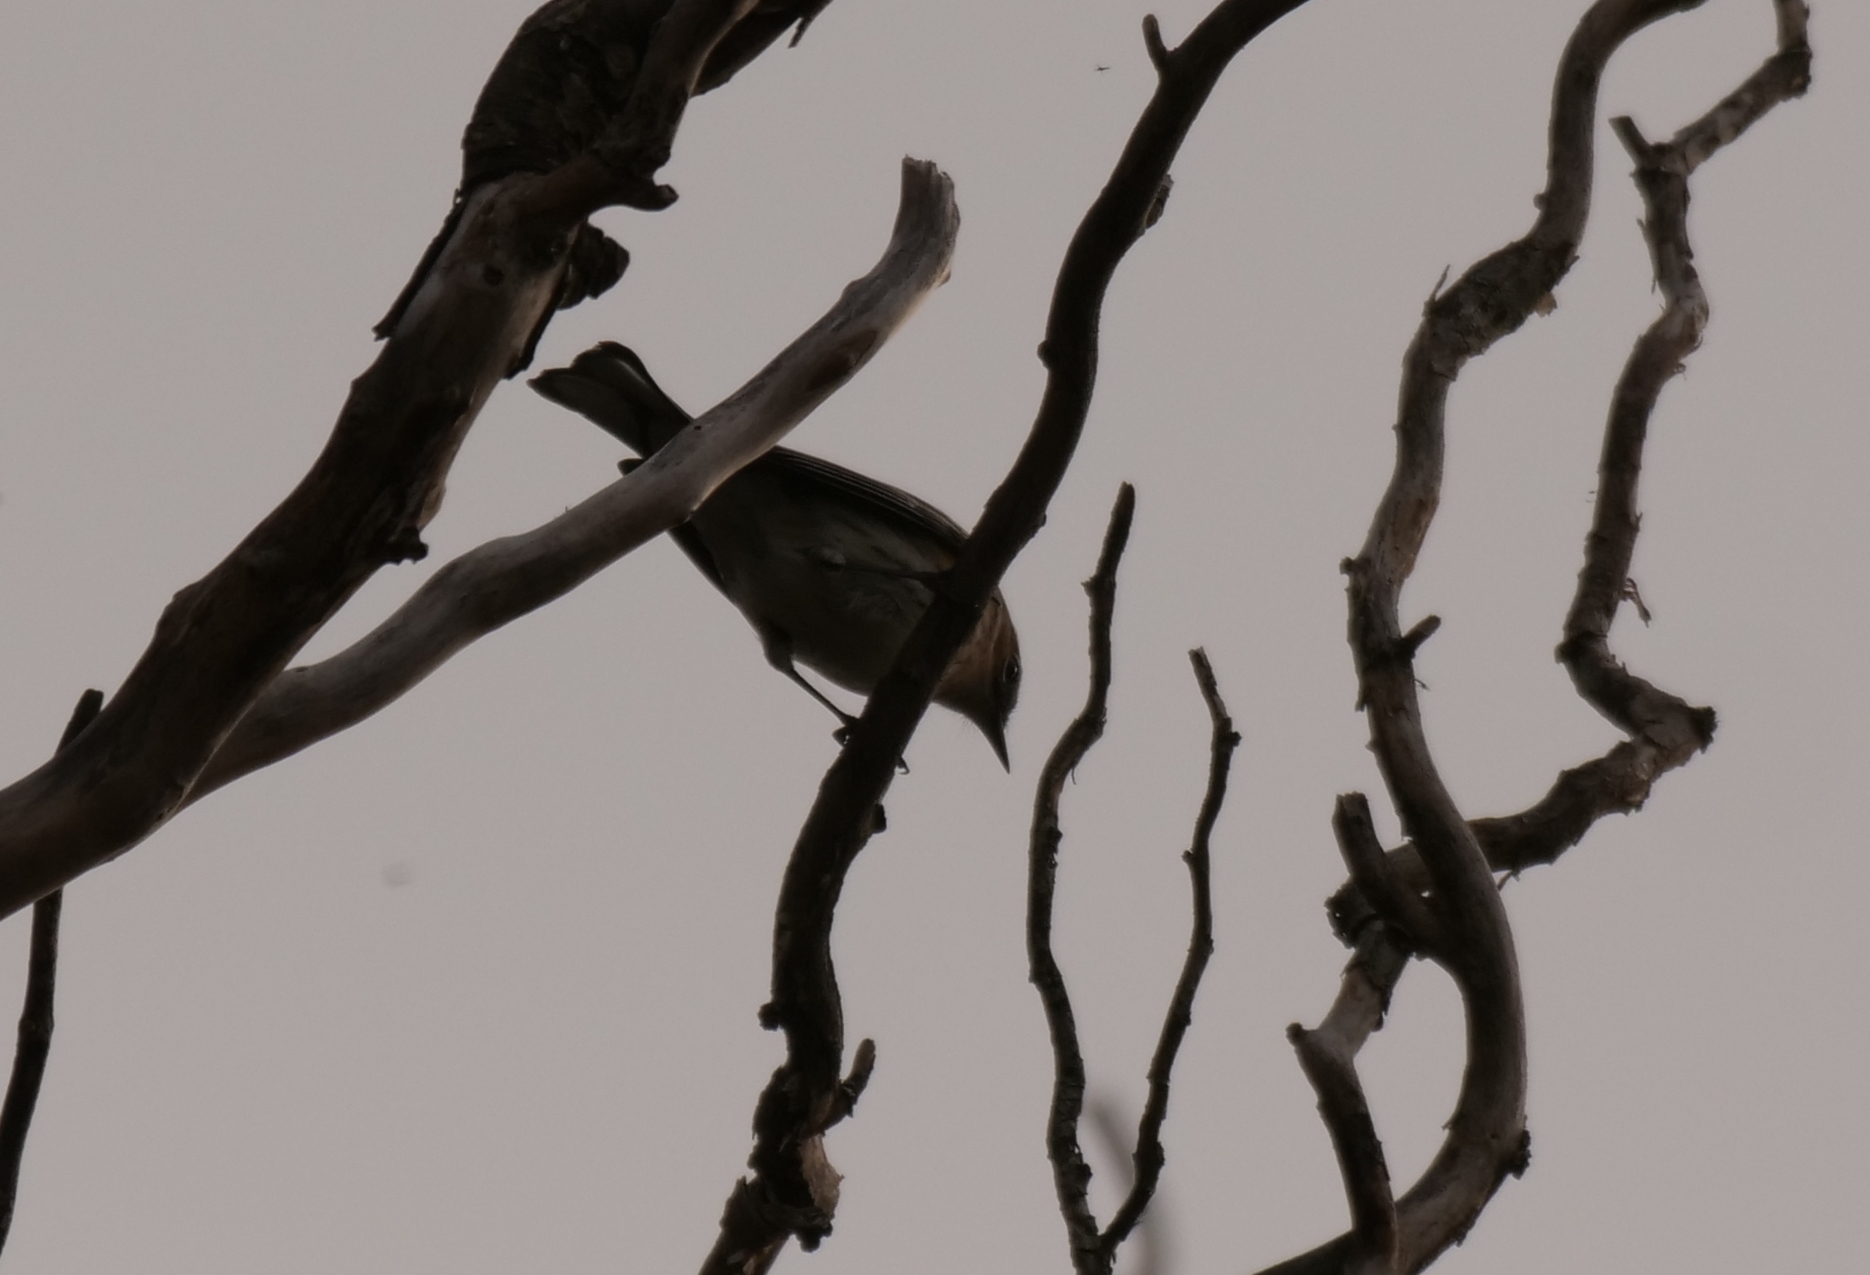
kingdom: Animalia
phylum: Chordata
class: Aves
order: Passeriformes
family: Parulidae
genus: Setophaga
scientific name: Setophaga coronata
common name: Myrtle warbler
